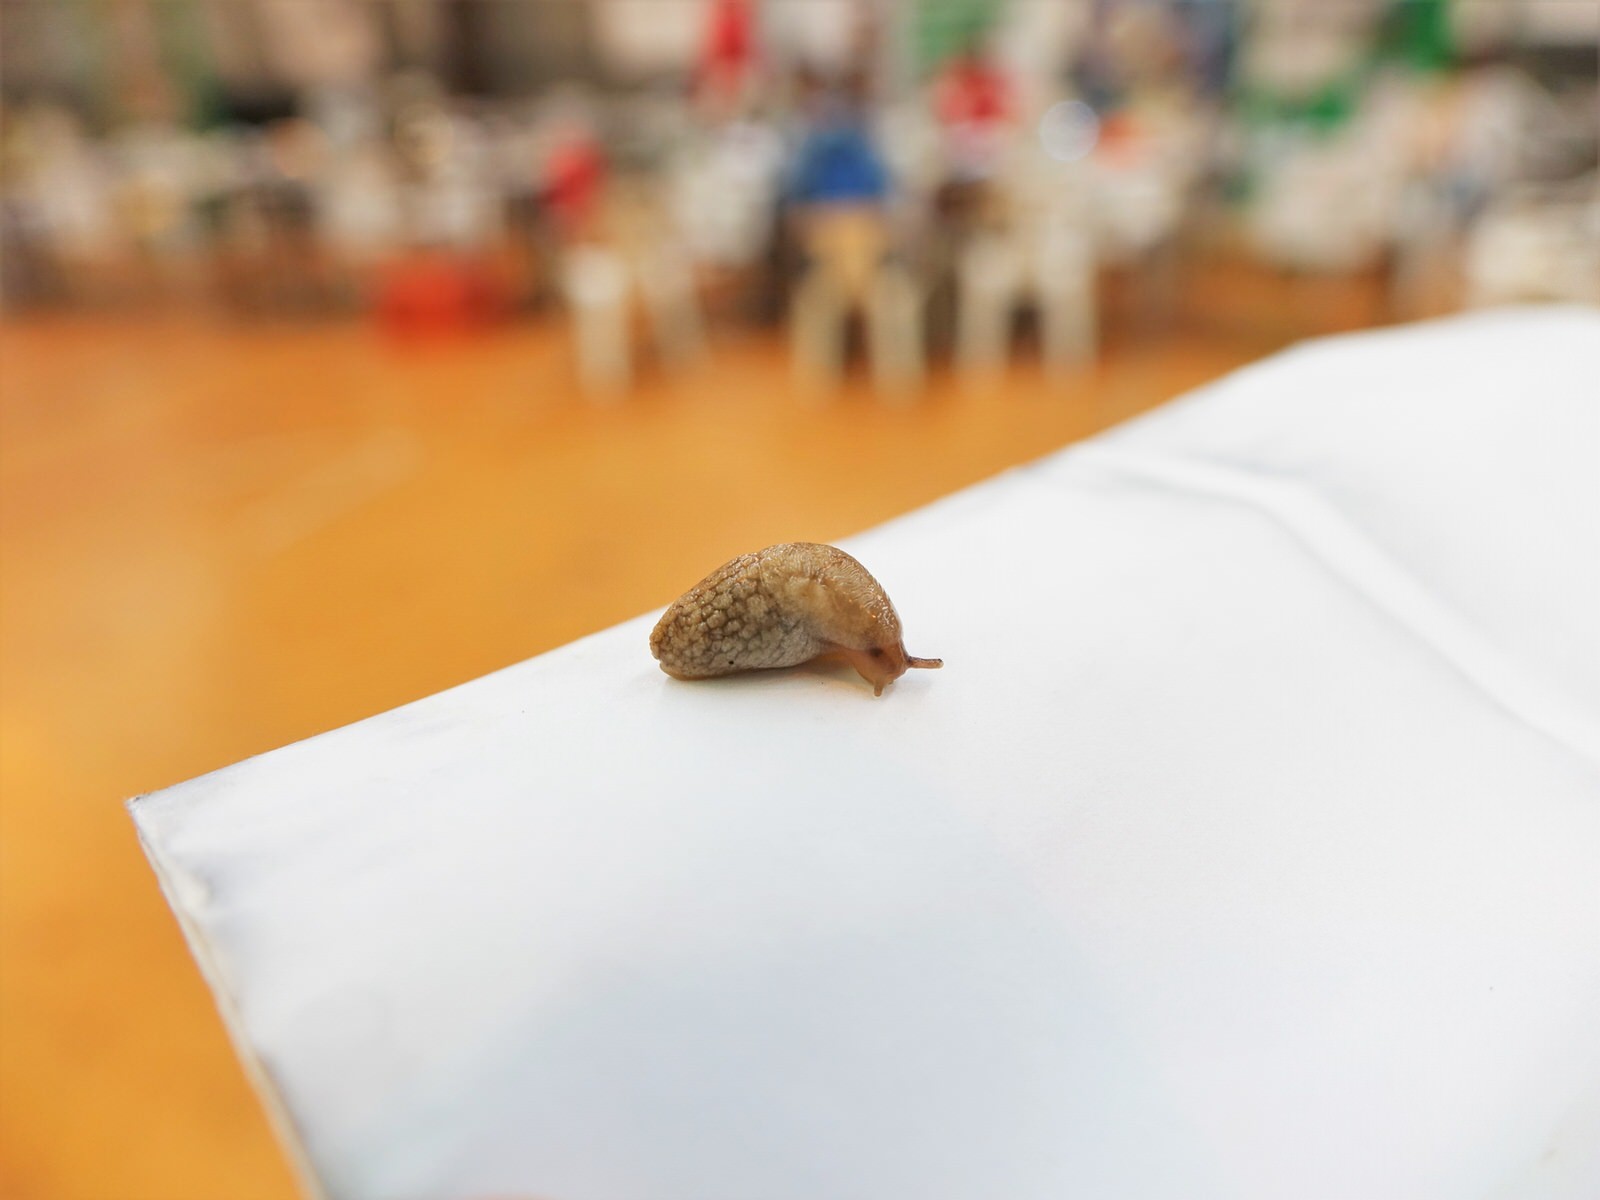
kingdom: Animalia
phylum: Mollusca
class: Gastropoda
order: Stylommatophora
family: Agriolimacidae
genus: Deroceras
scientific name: Deroceras reticulatum
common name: Gray field slug
